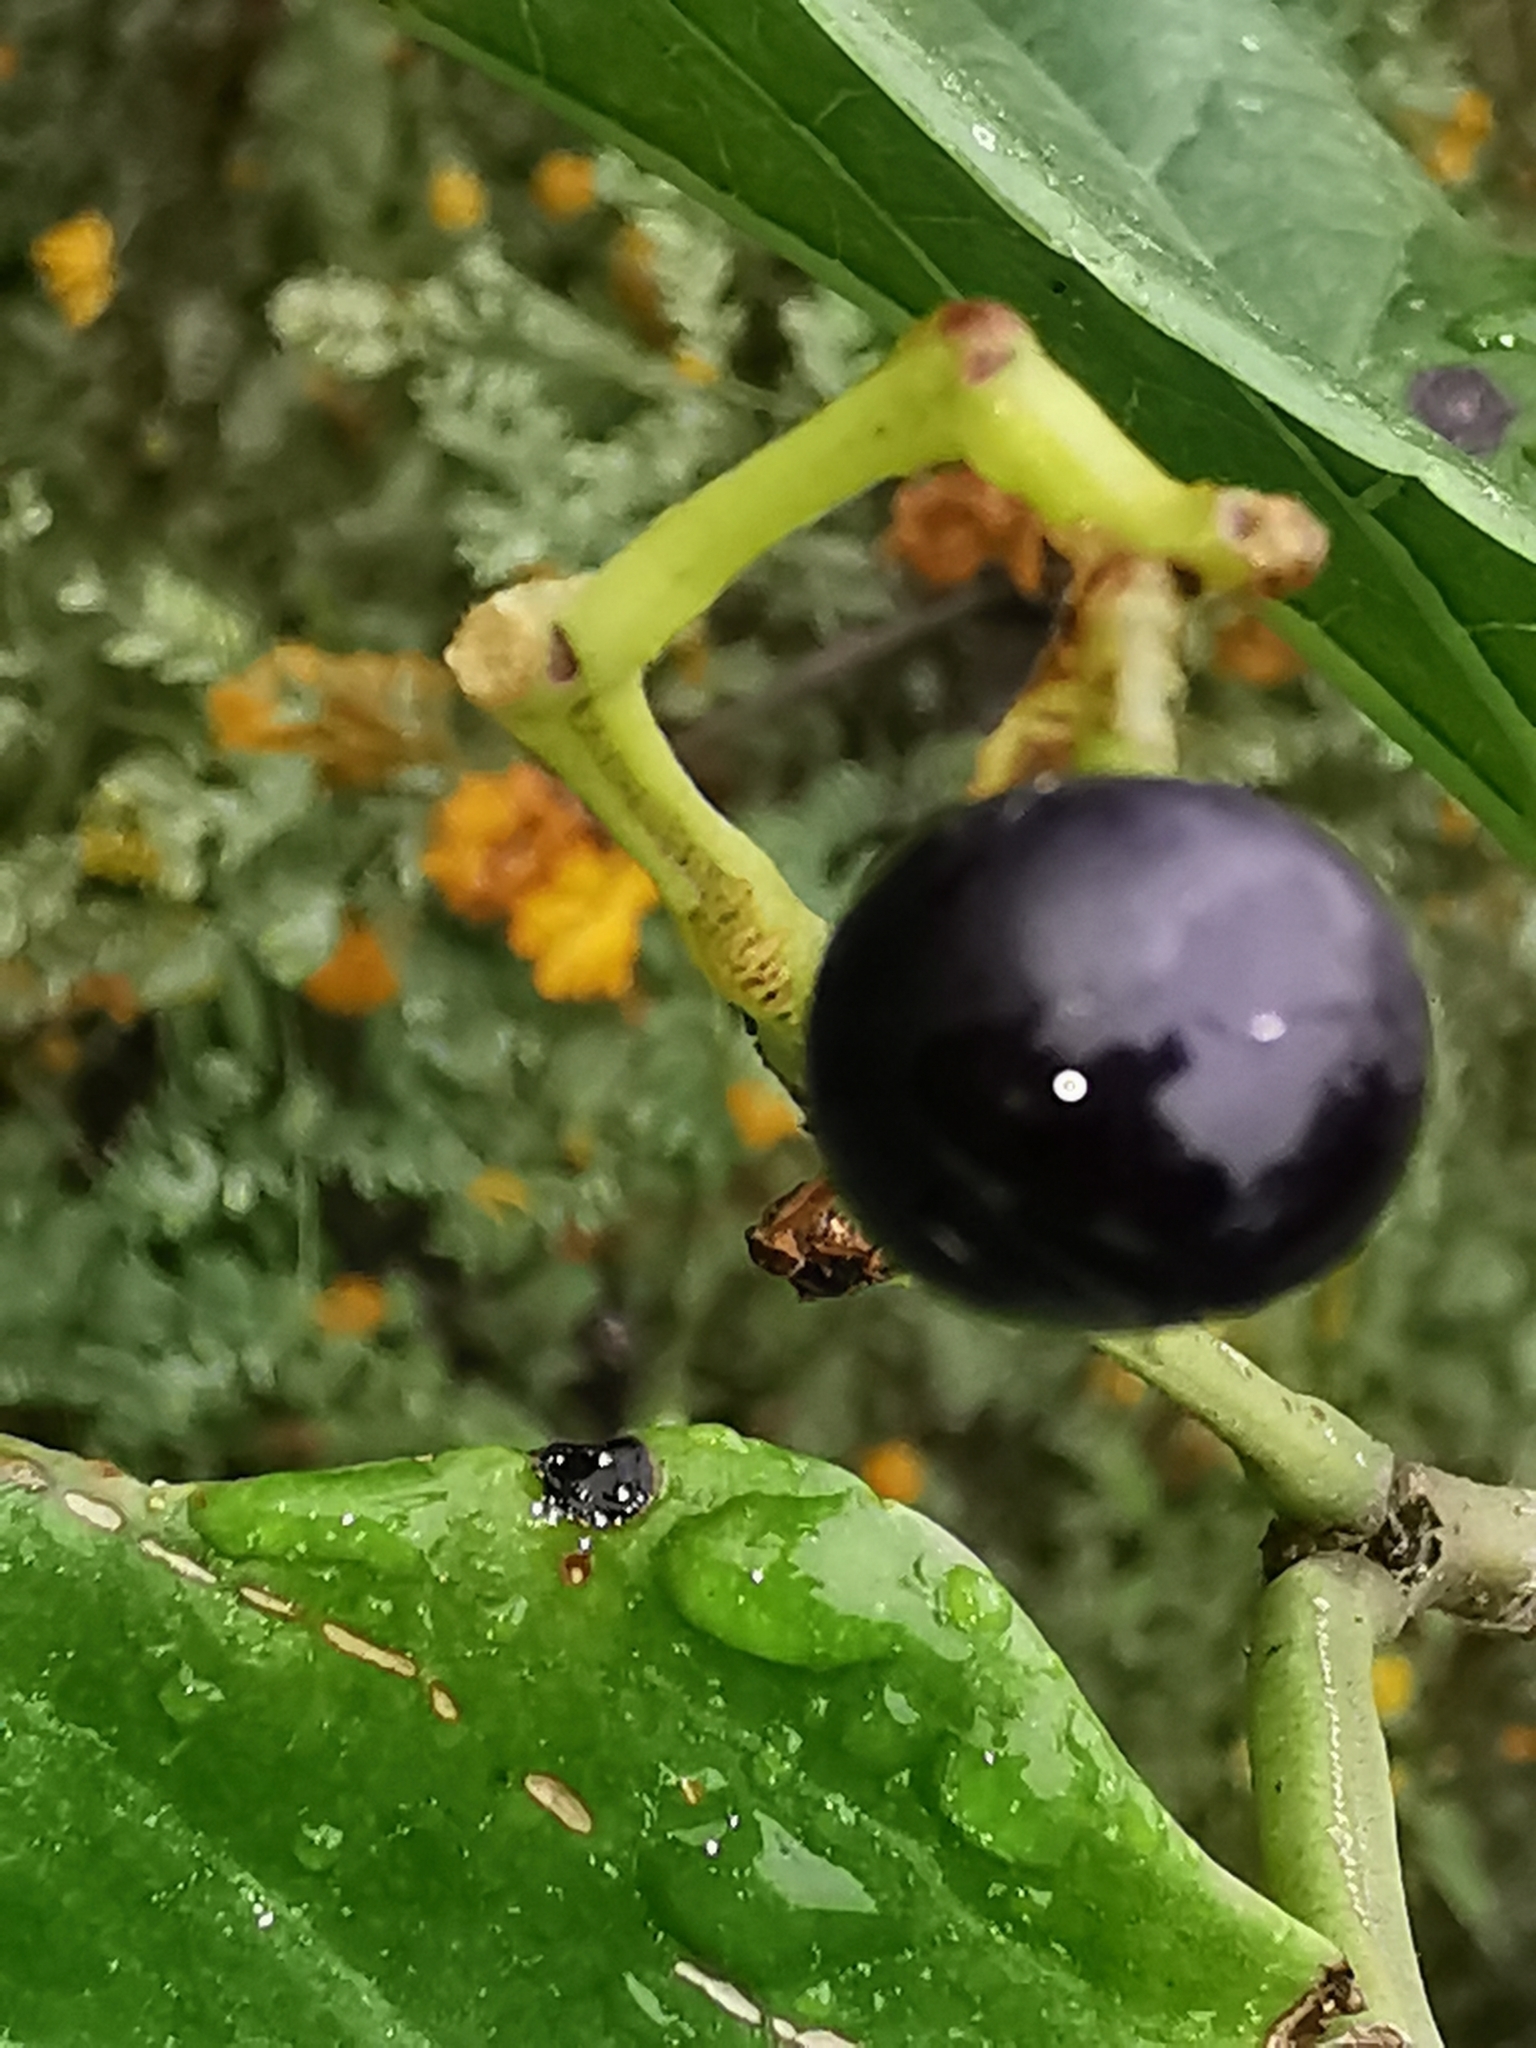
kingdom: Plantae
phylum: Tracheophyta
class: Magnoliopsida
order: Vitales
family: Vitaceae
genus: Cissus
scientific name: Cissus verticillata
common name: Princess vine
